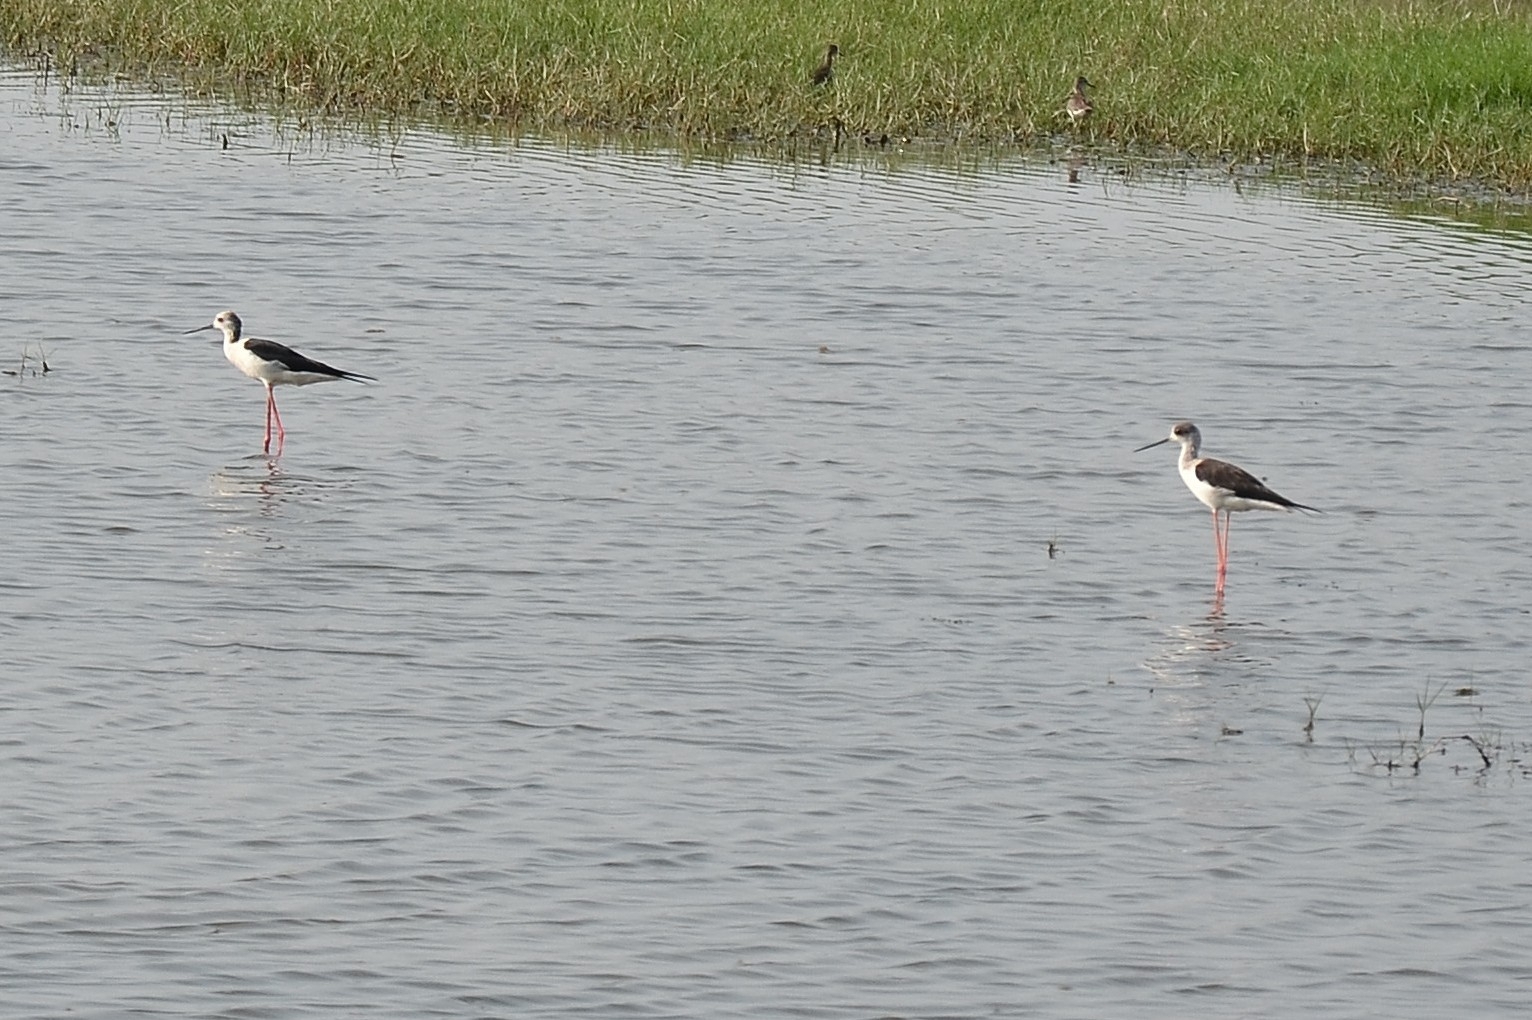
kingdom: Animalia
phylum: Chordata
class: Aves
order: Charadriiformes
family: Recurvirostridae
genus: Himantopus
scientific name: Himantopus himantopus
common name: Black-winged stilt
